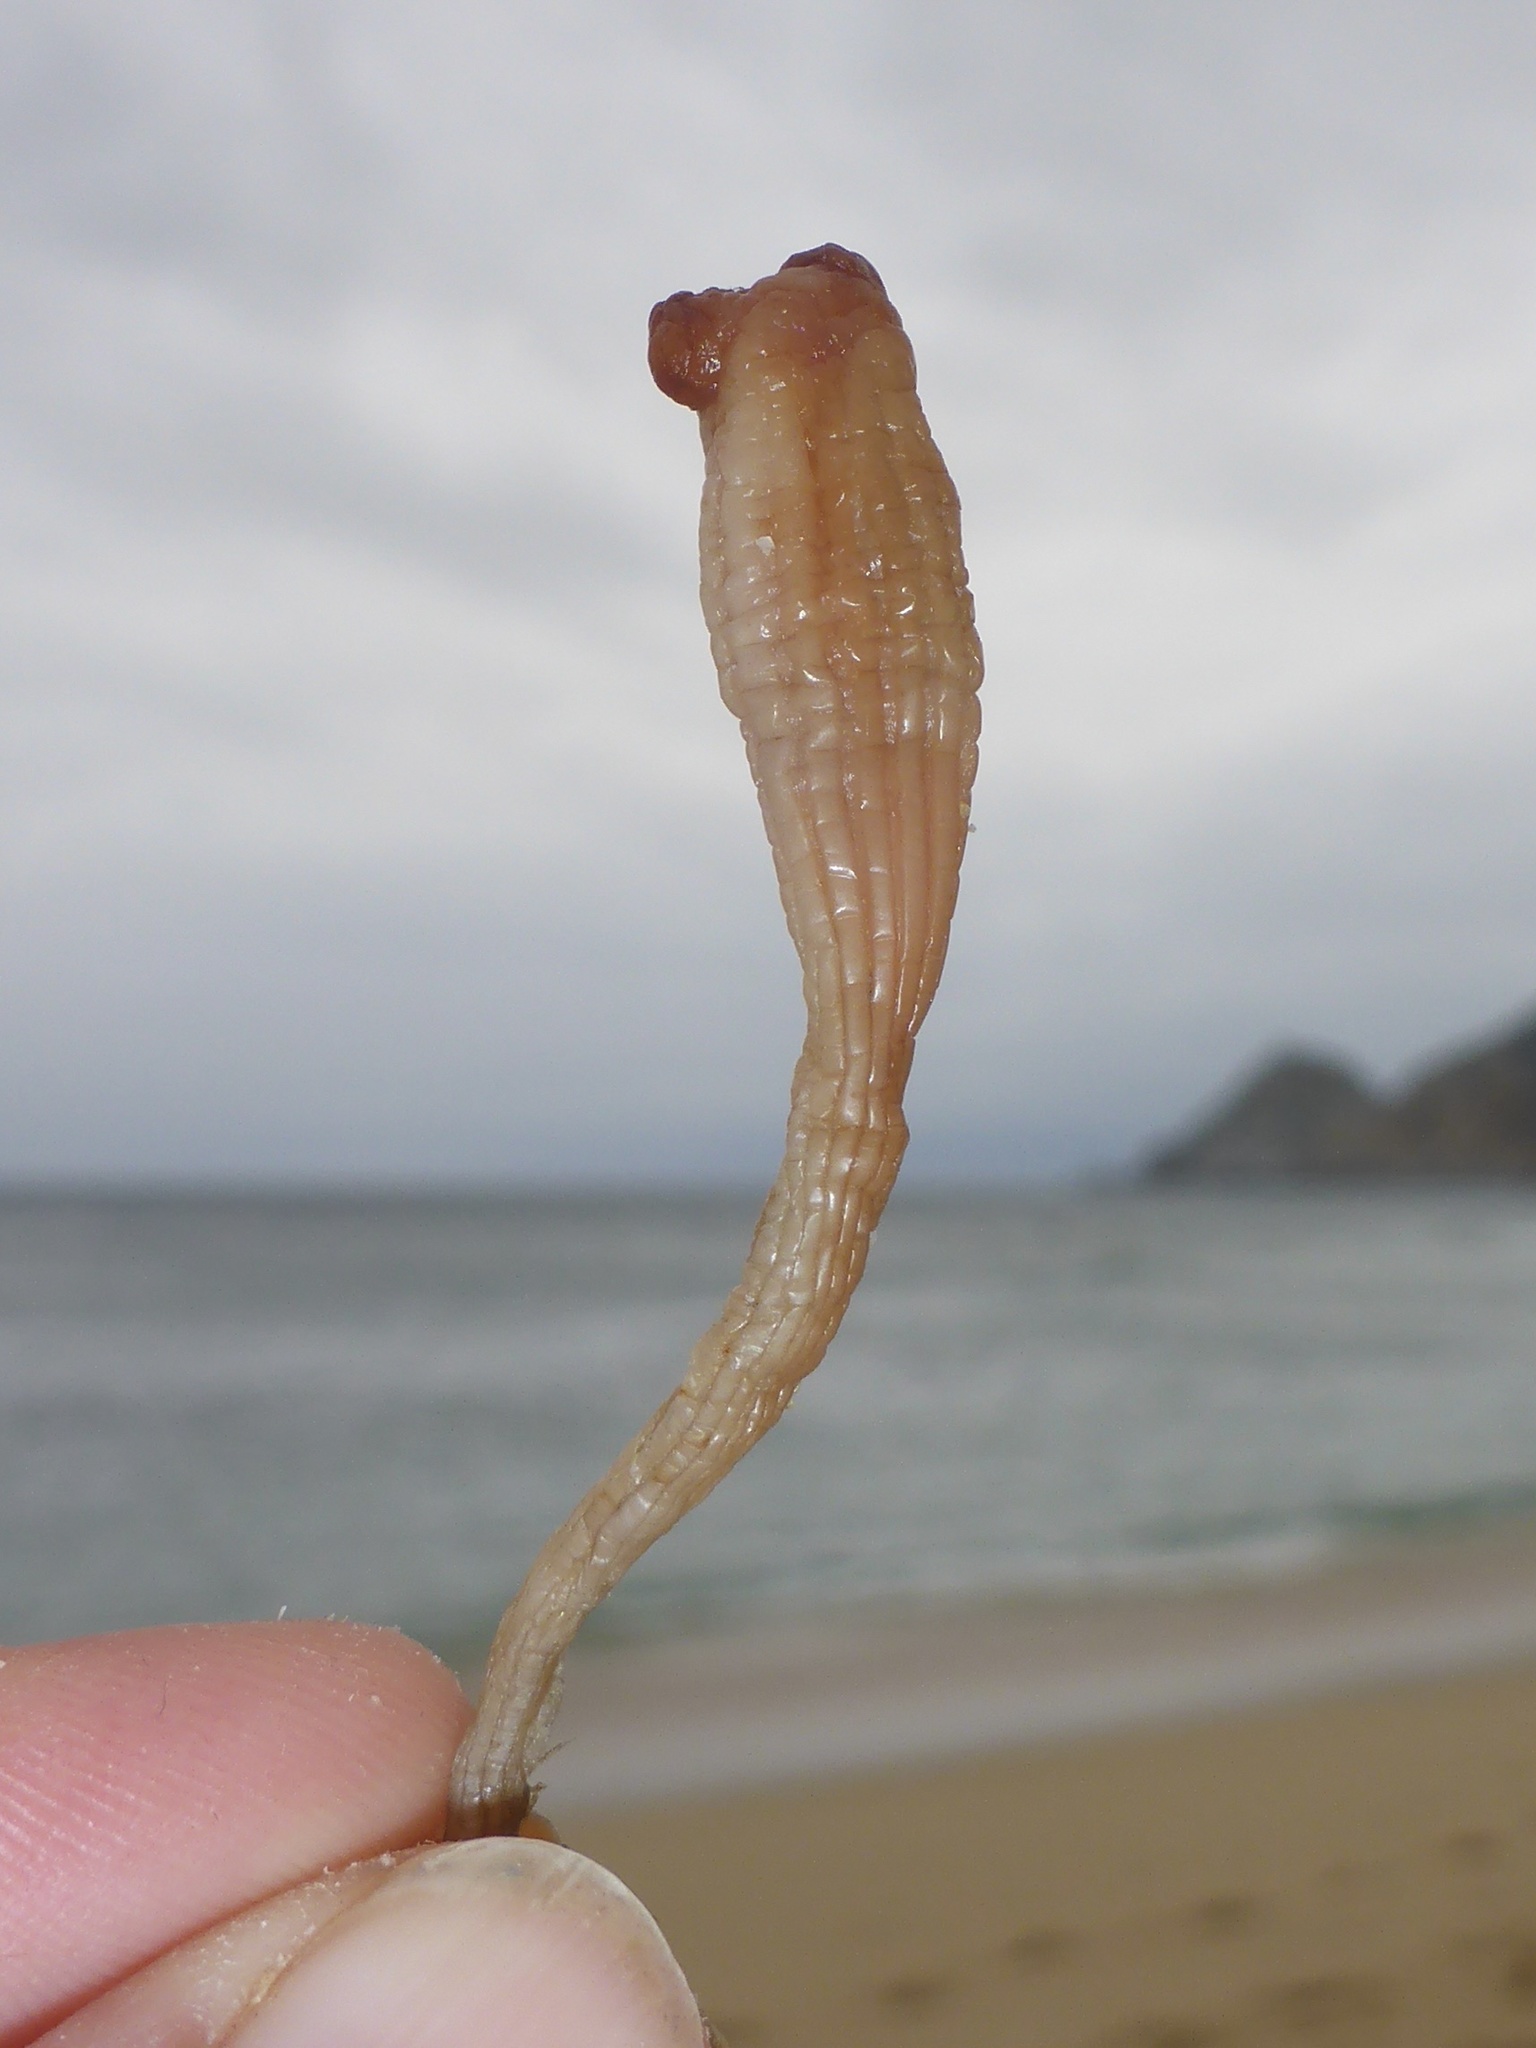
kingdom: Animalia
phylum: Chordata
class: Ascidiacea
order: Stolidobranchia
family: Styelidae
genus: Styela
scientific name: Styela montereyensis
